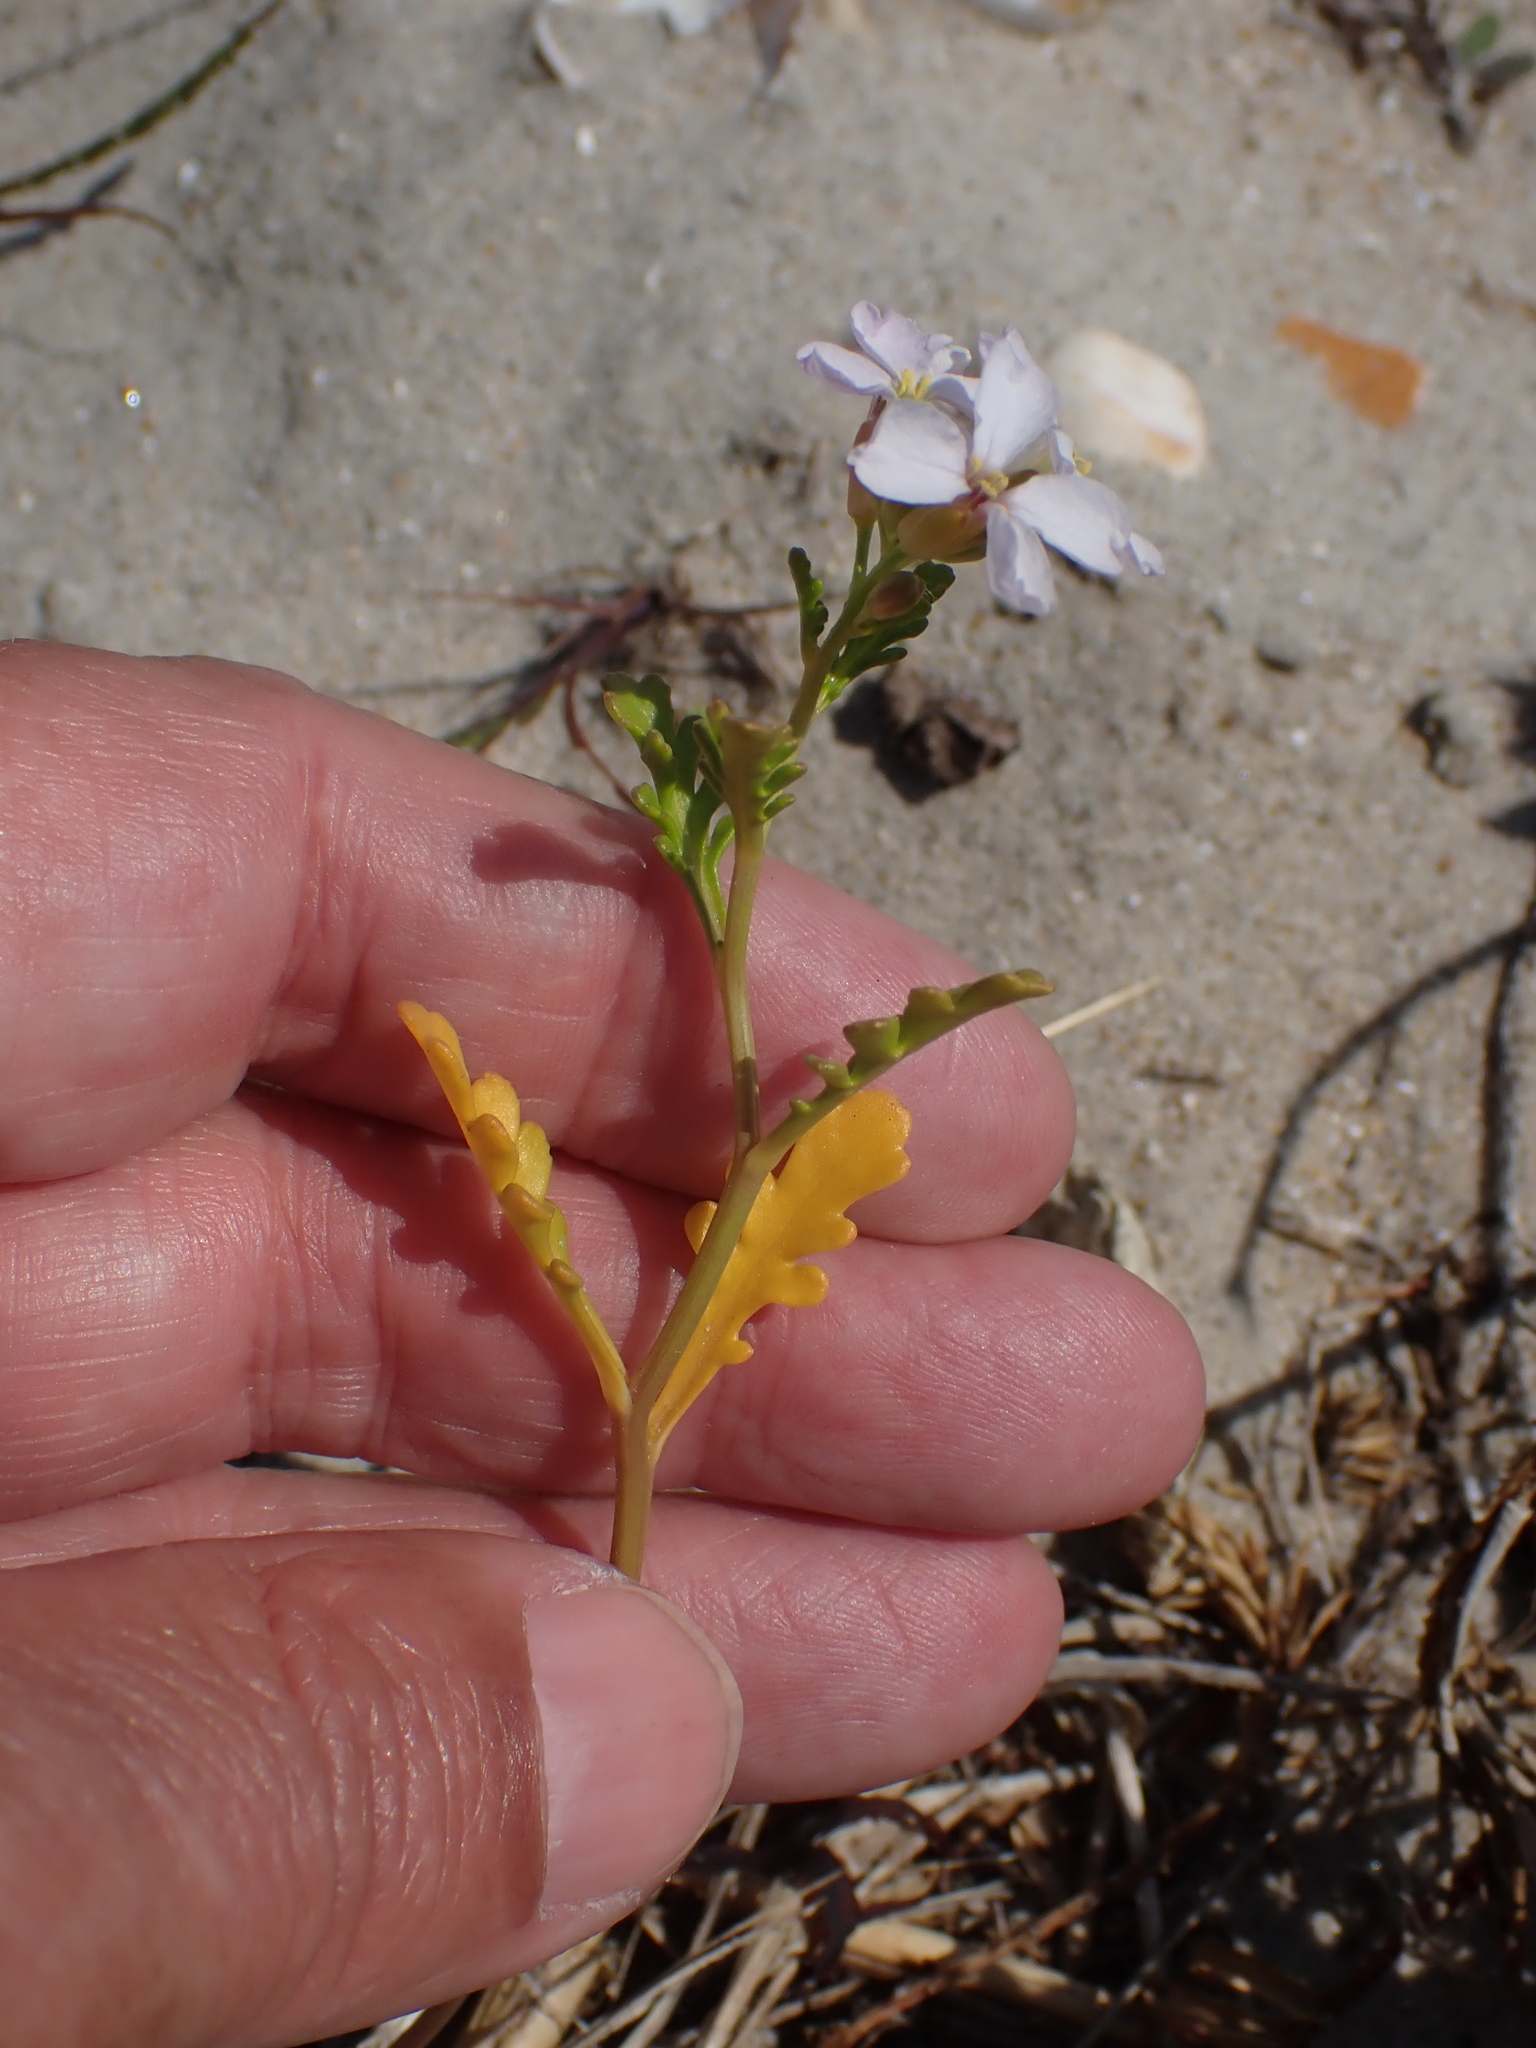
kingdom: Plantae
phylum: Tracheophyta
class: Magnoliopsida
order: Brassicales
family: Brassicaceae
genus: Cakile
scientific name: Cakile maritima
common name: Sea rocket
